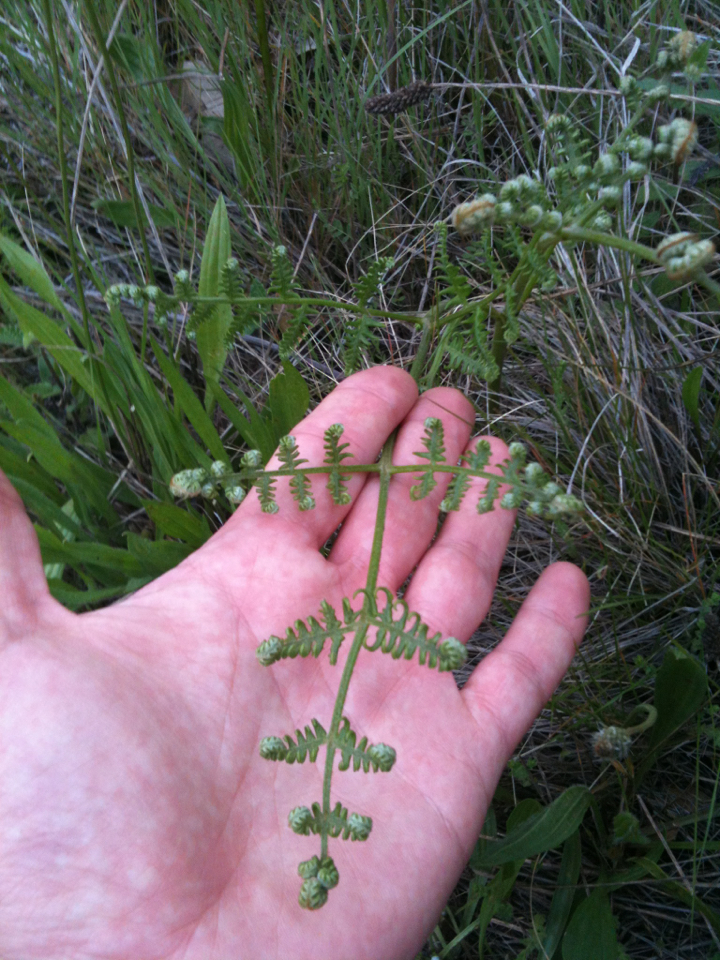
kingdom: Plantae
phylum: Tracheophyta
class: Polypodiopsida
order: Polypodiales
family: Dennstaedtiaceae
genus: Pteridium
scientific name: Pteridium aquilinum
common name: Bracken
